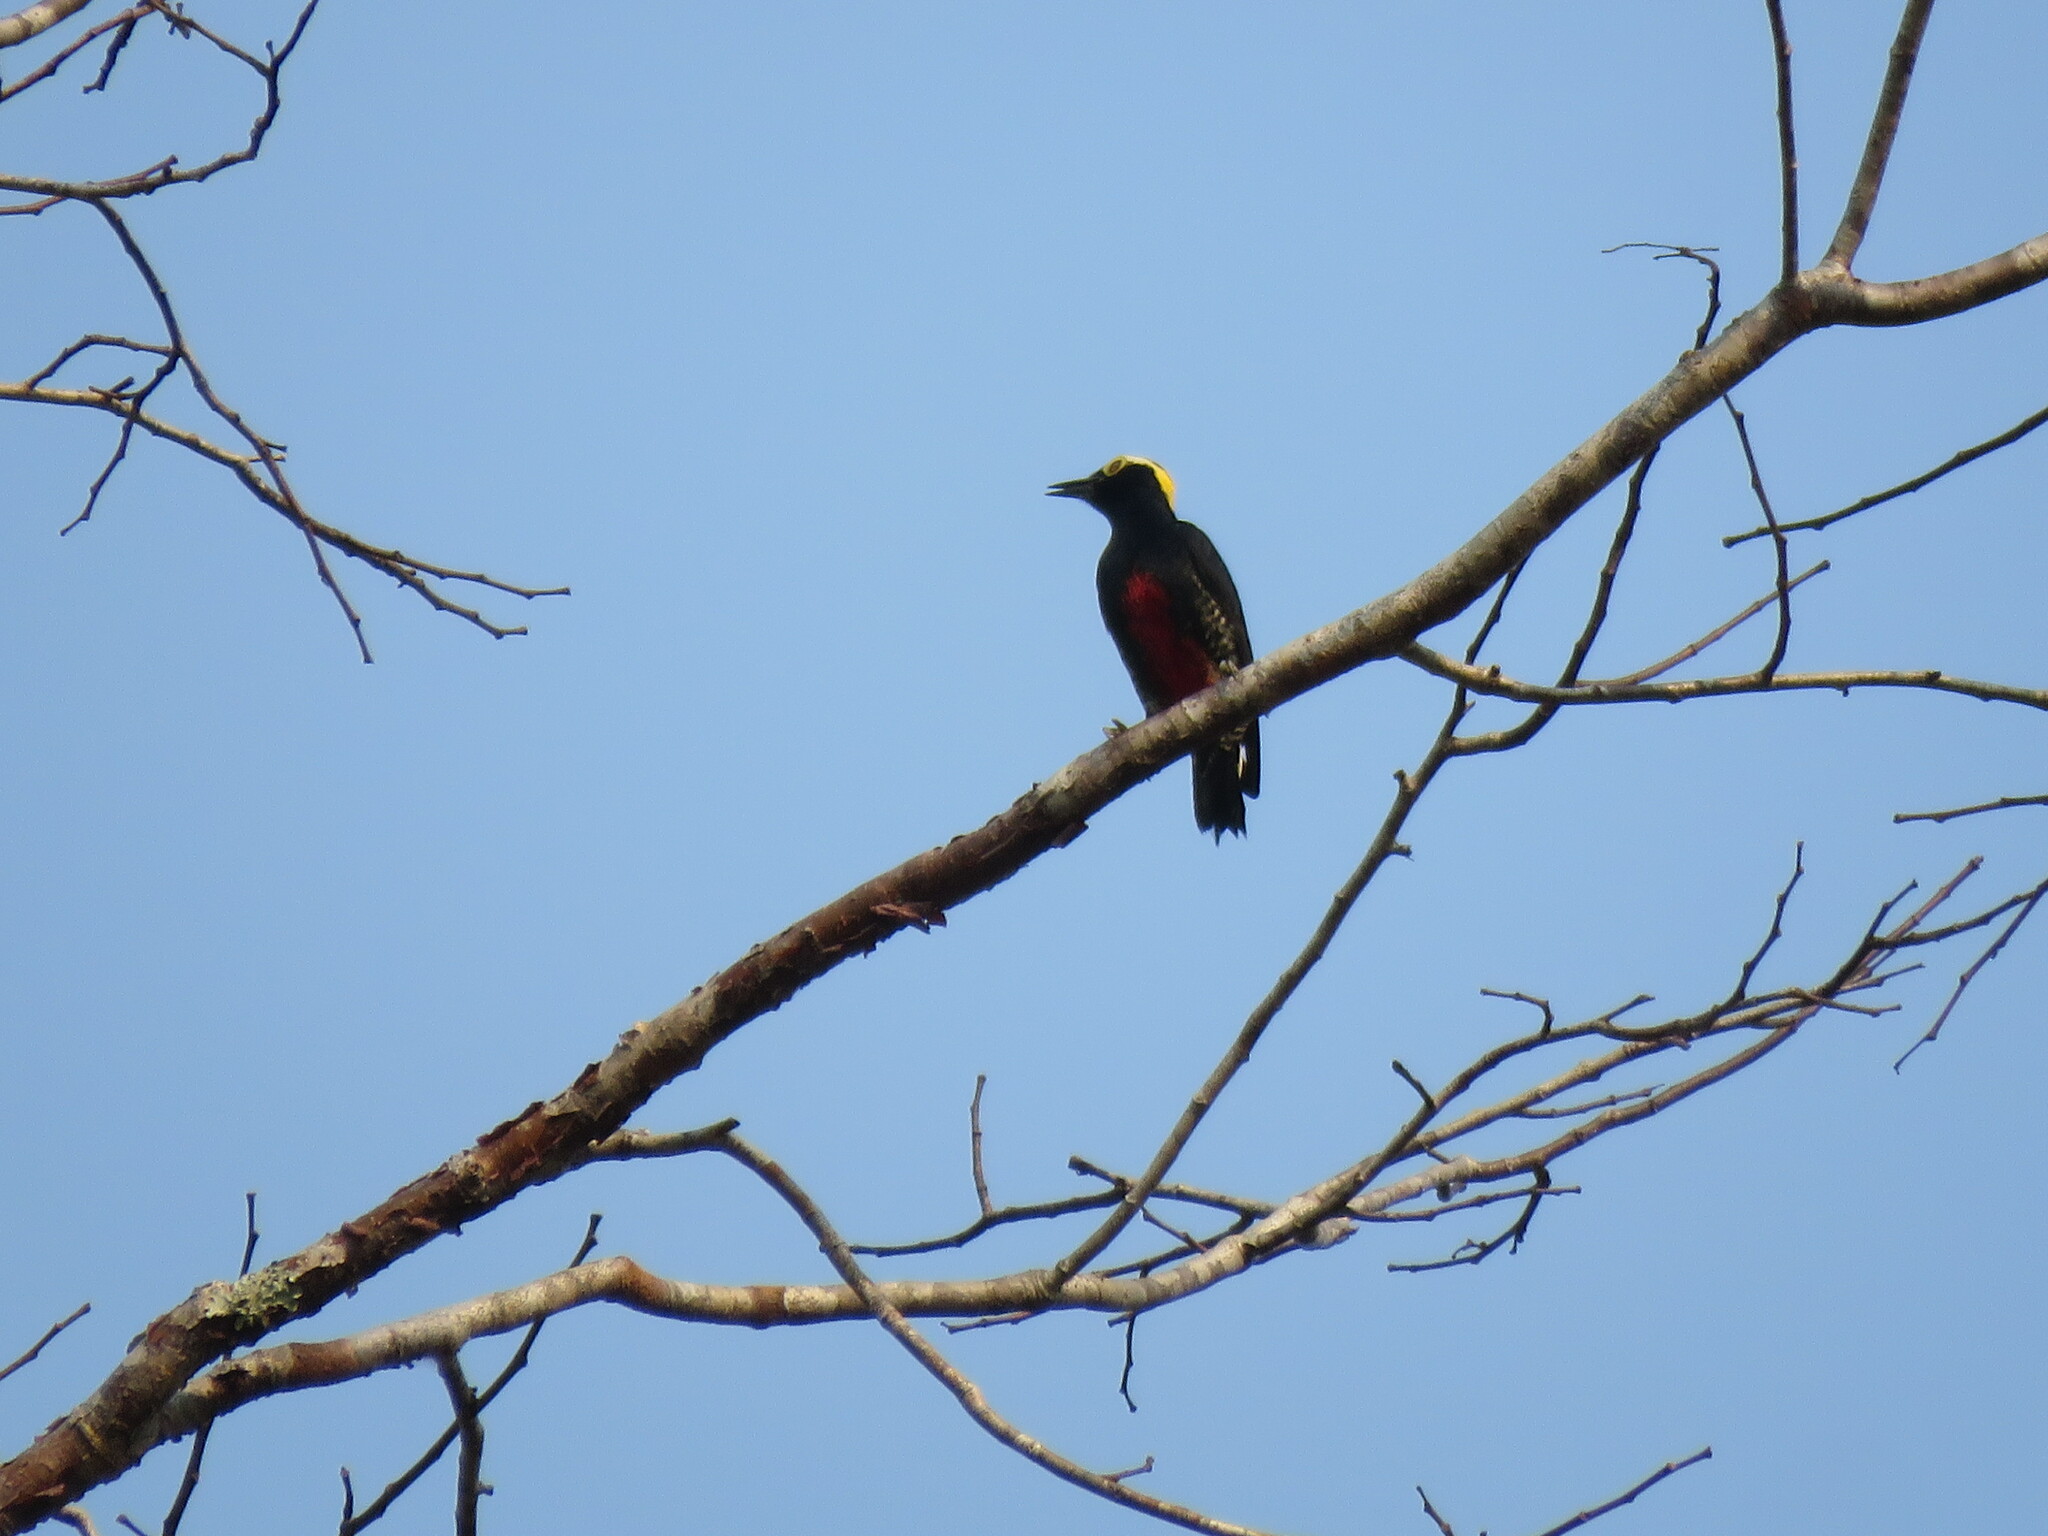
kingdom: Animalia
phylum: Chordata
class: Aves
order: Piciformes
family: Picidae
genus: Melanerpes
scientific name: Melanerpes cruentatus
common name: Yellow-tufted woodpecker
